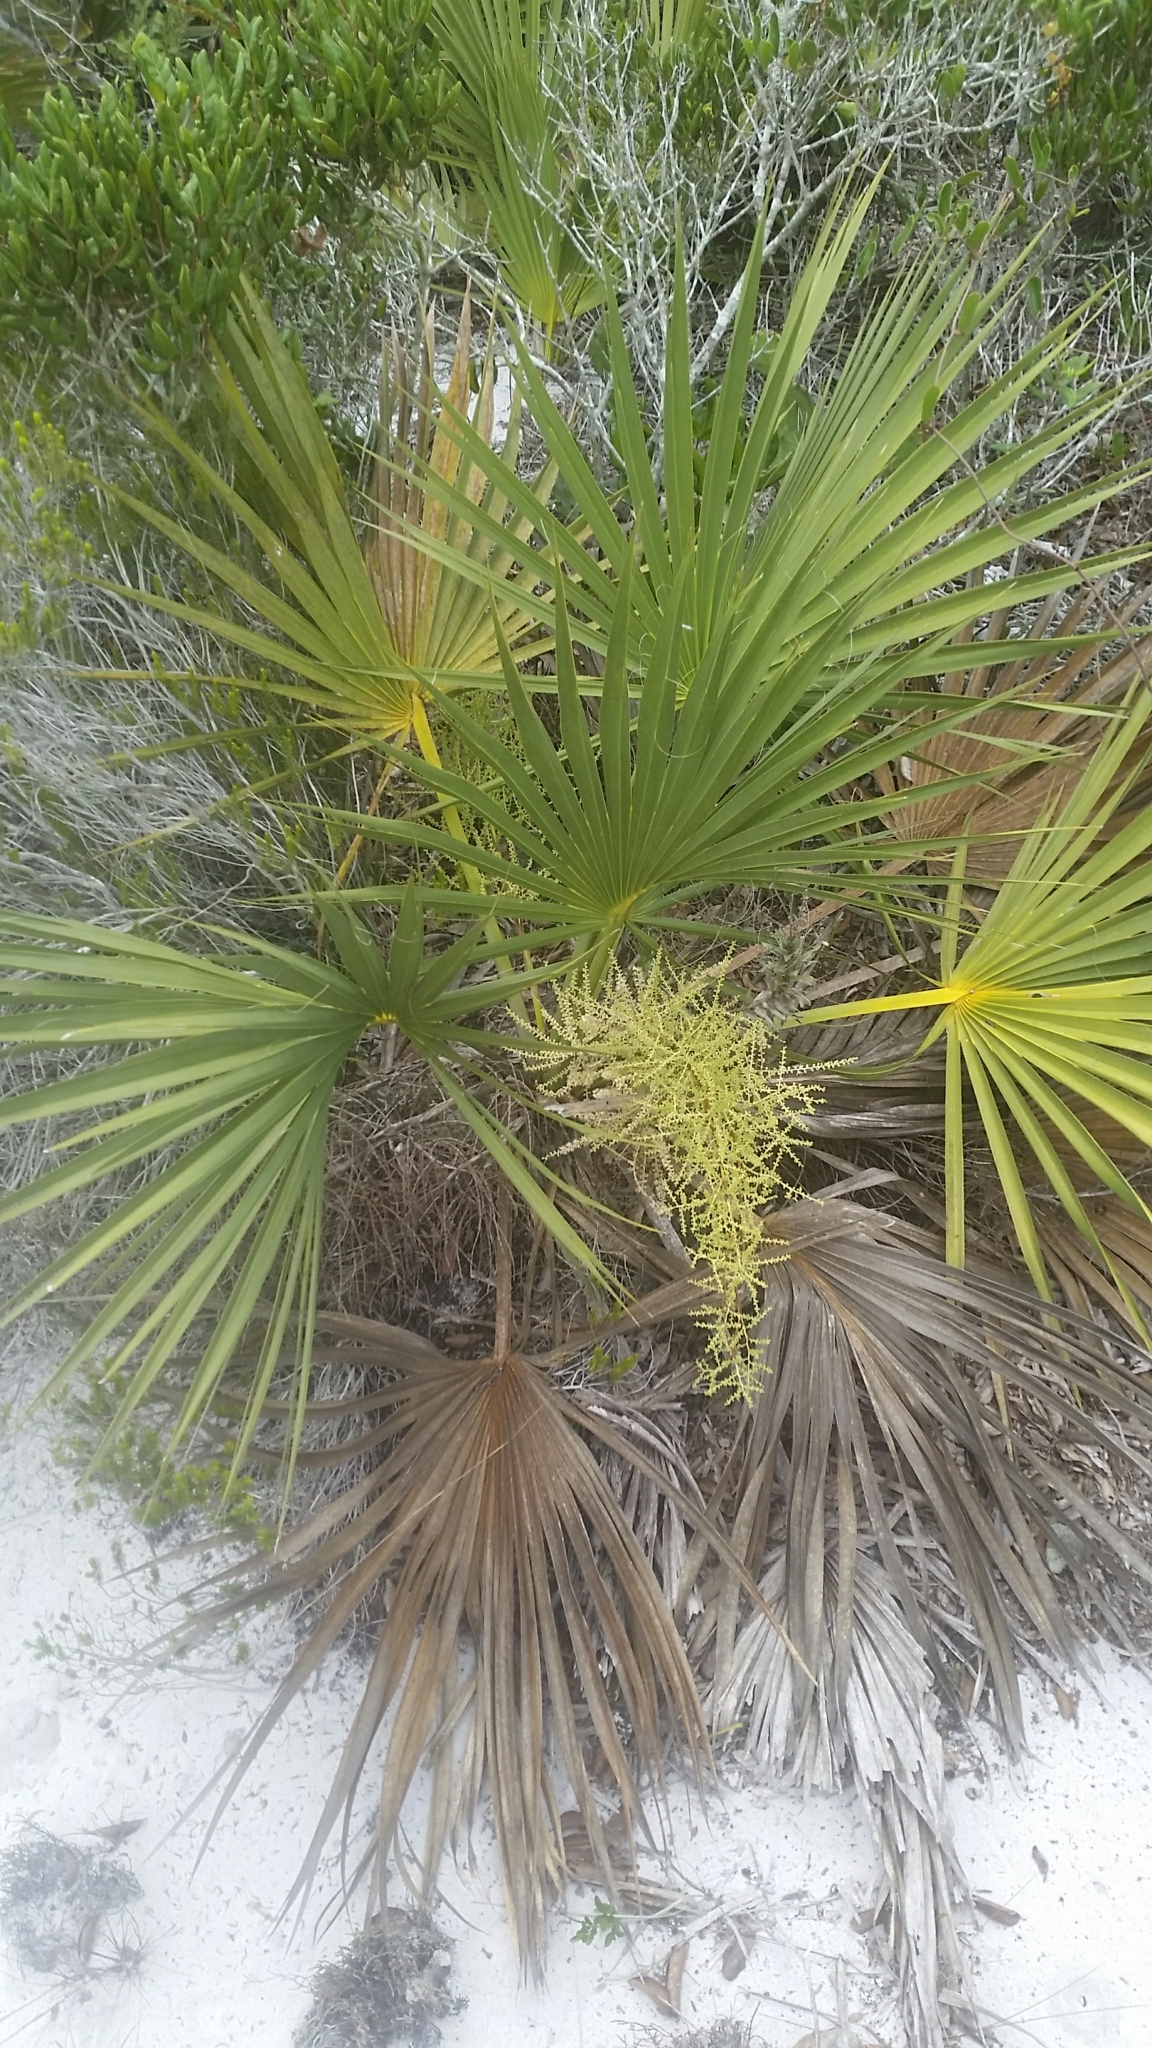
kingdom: Plantae
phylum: Tracheophyta
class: Liliopsida
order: Arecales
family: Arecaceae
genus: Sabal
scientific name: Sabal etonia
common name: Dwarf palmetto
